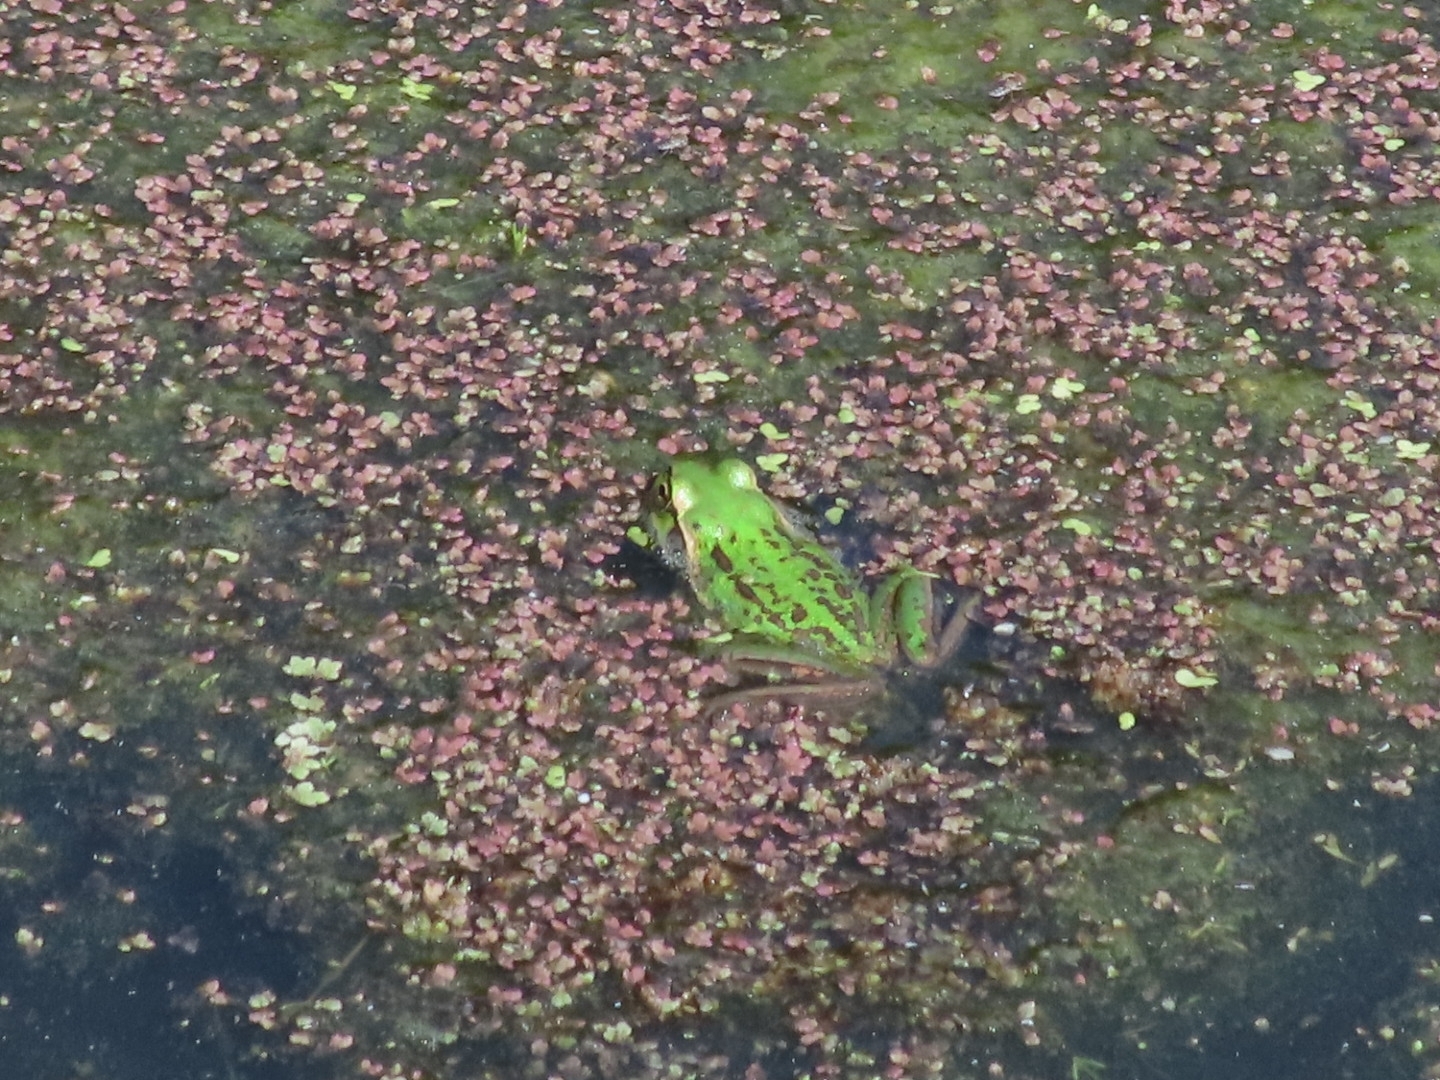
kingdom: Animalia
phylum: Chordata
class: Amphibia
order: Anura
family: Pelodryadidae
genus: Ranoidea
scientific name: Ranoidea raniformis
